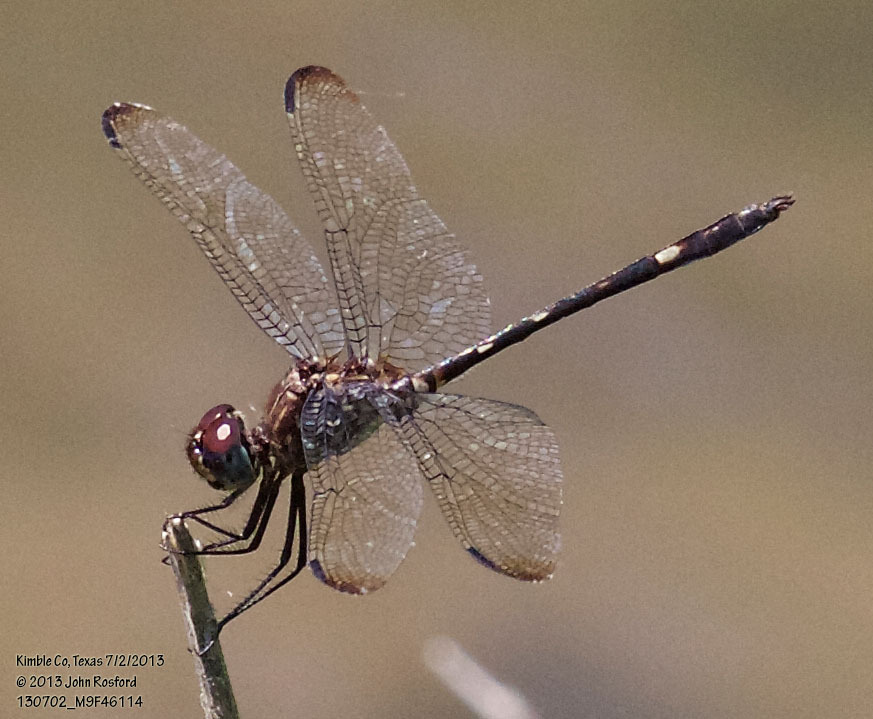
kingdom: Animalia
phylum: Arthropoda
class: Insecta
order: Odonata
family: Libellulidae
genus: Dythemis
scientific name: Dythemis velox
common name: Swift setwing
